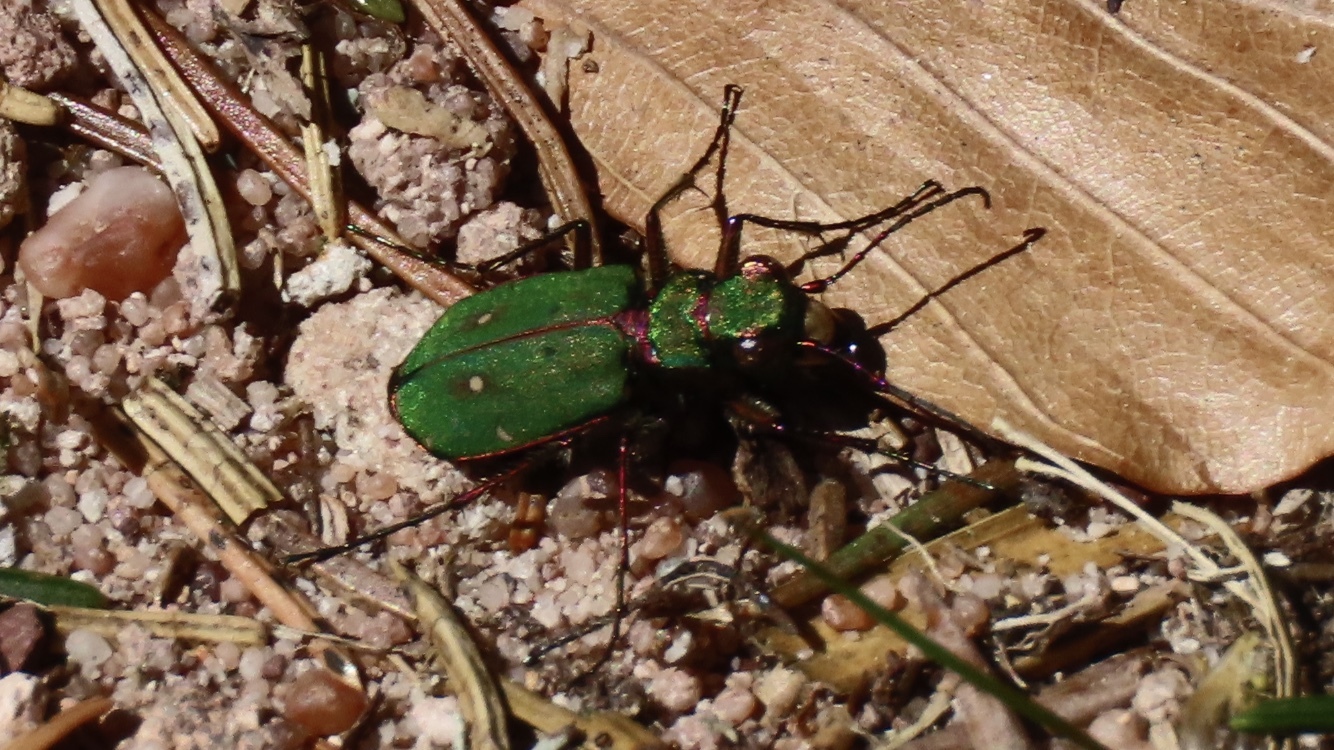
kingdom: Animalia
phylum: Arthropoda
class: Insecta
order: Coleoptera
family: Carabidae
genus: Cicindela
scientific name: Cicindela campestris
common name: Common tiger beetle
